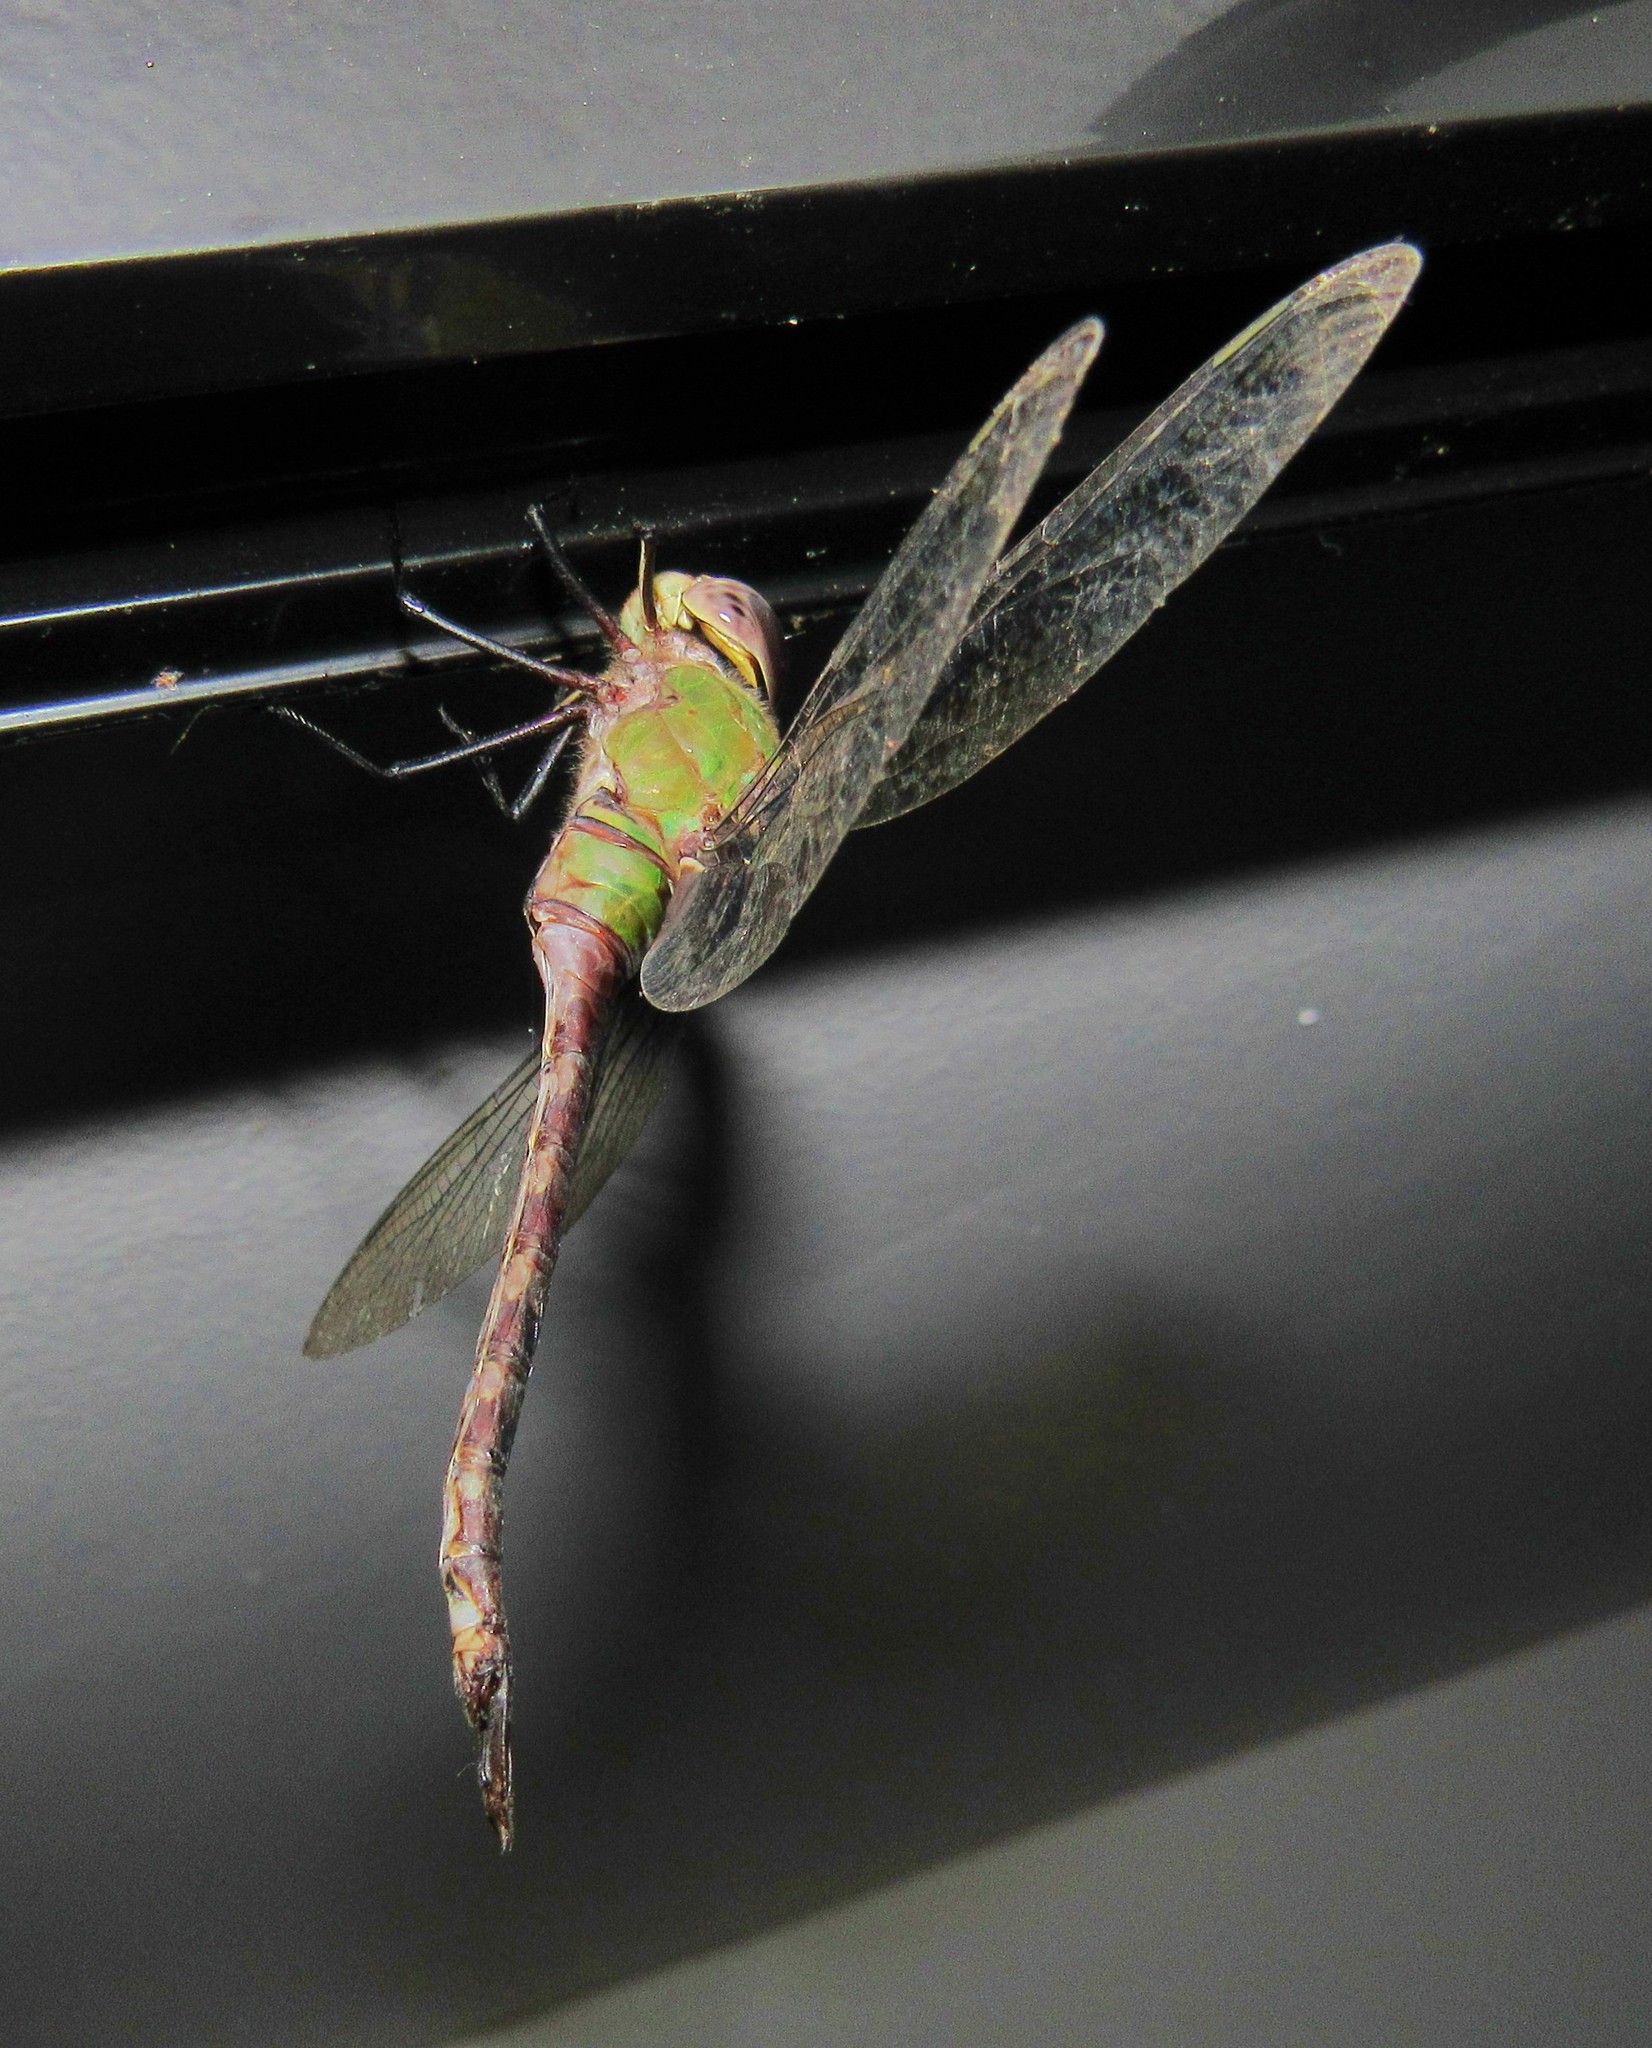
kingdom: Animalia
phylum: Arthropoda
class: Insecta
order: Odonata
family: Aeshnidae
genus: Anax
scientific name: Anax amazili
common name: Amazon darner
